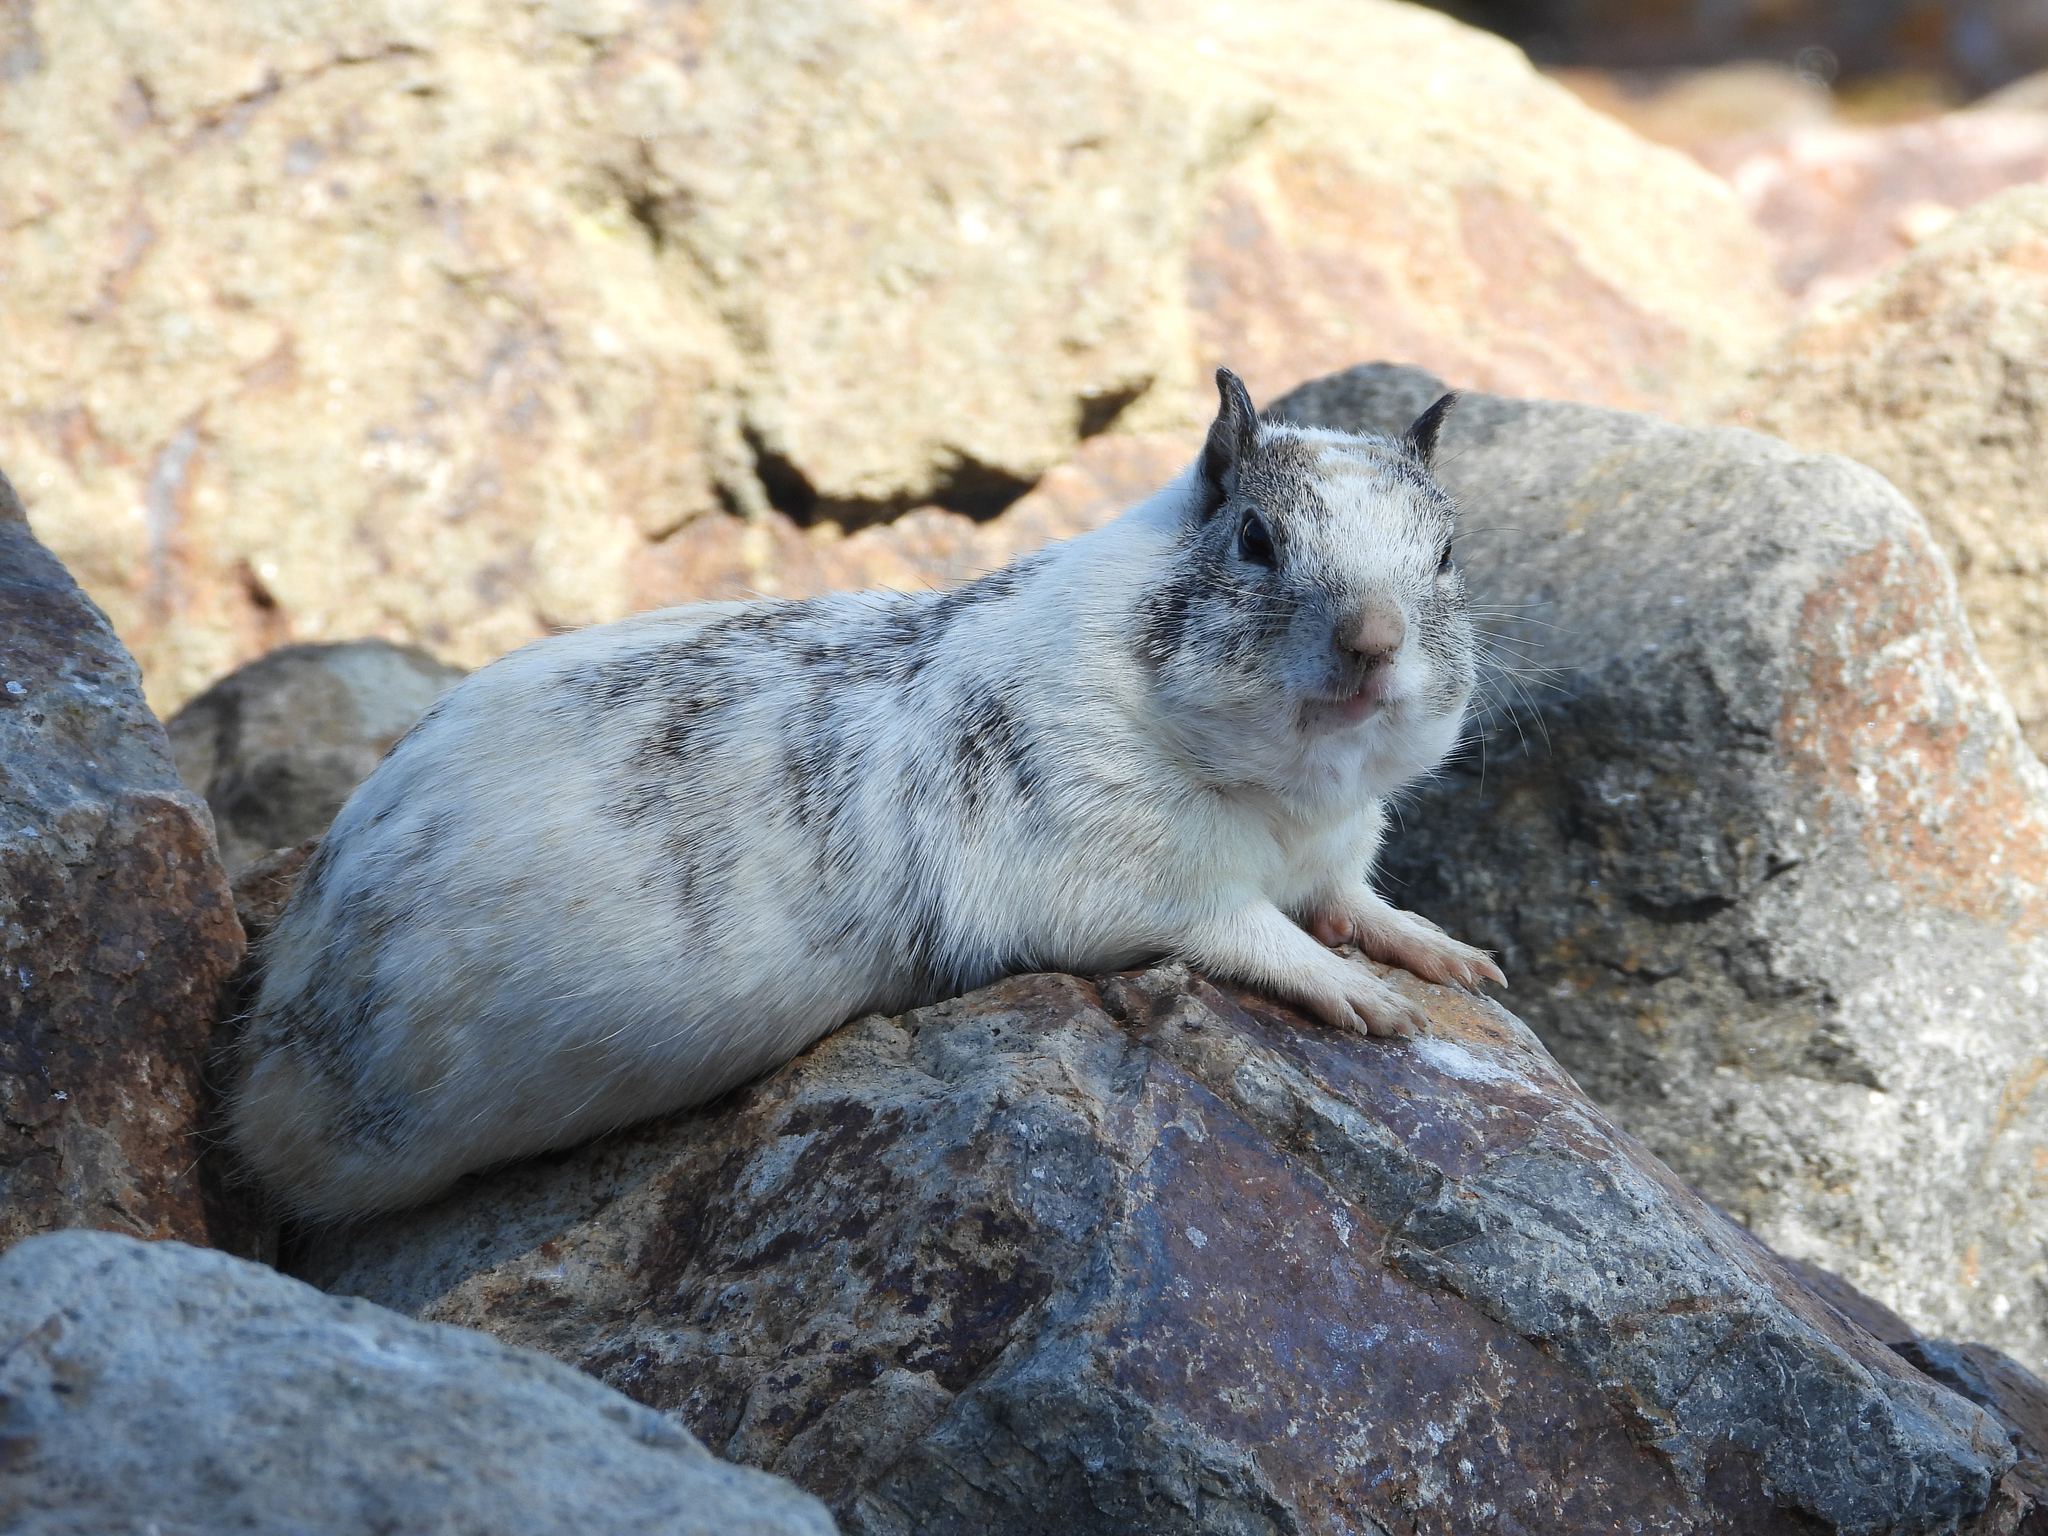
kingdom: Animalia
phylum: Chordata
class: Mammalia
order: Rodentia
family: Sciuridae
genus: Otospermophilus
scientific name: Otospermophilus beecheyi
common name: California ground squirrel
